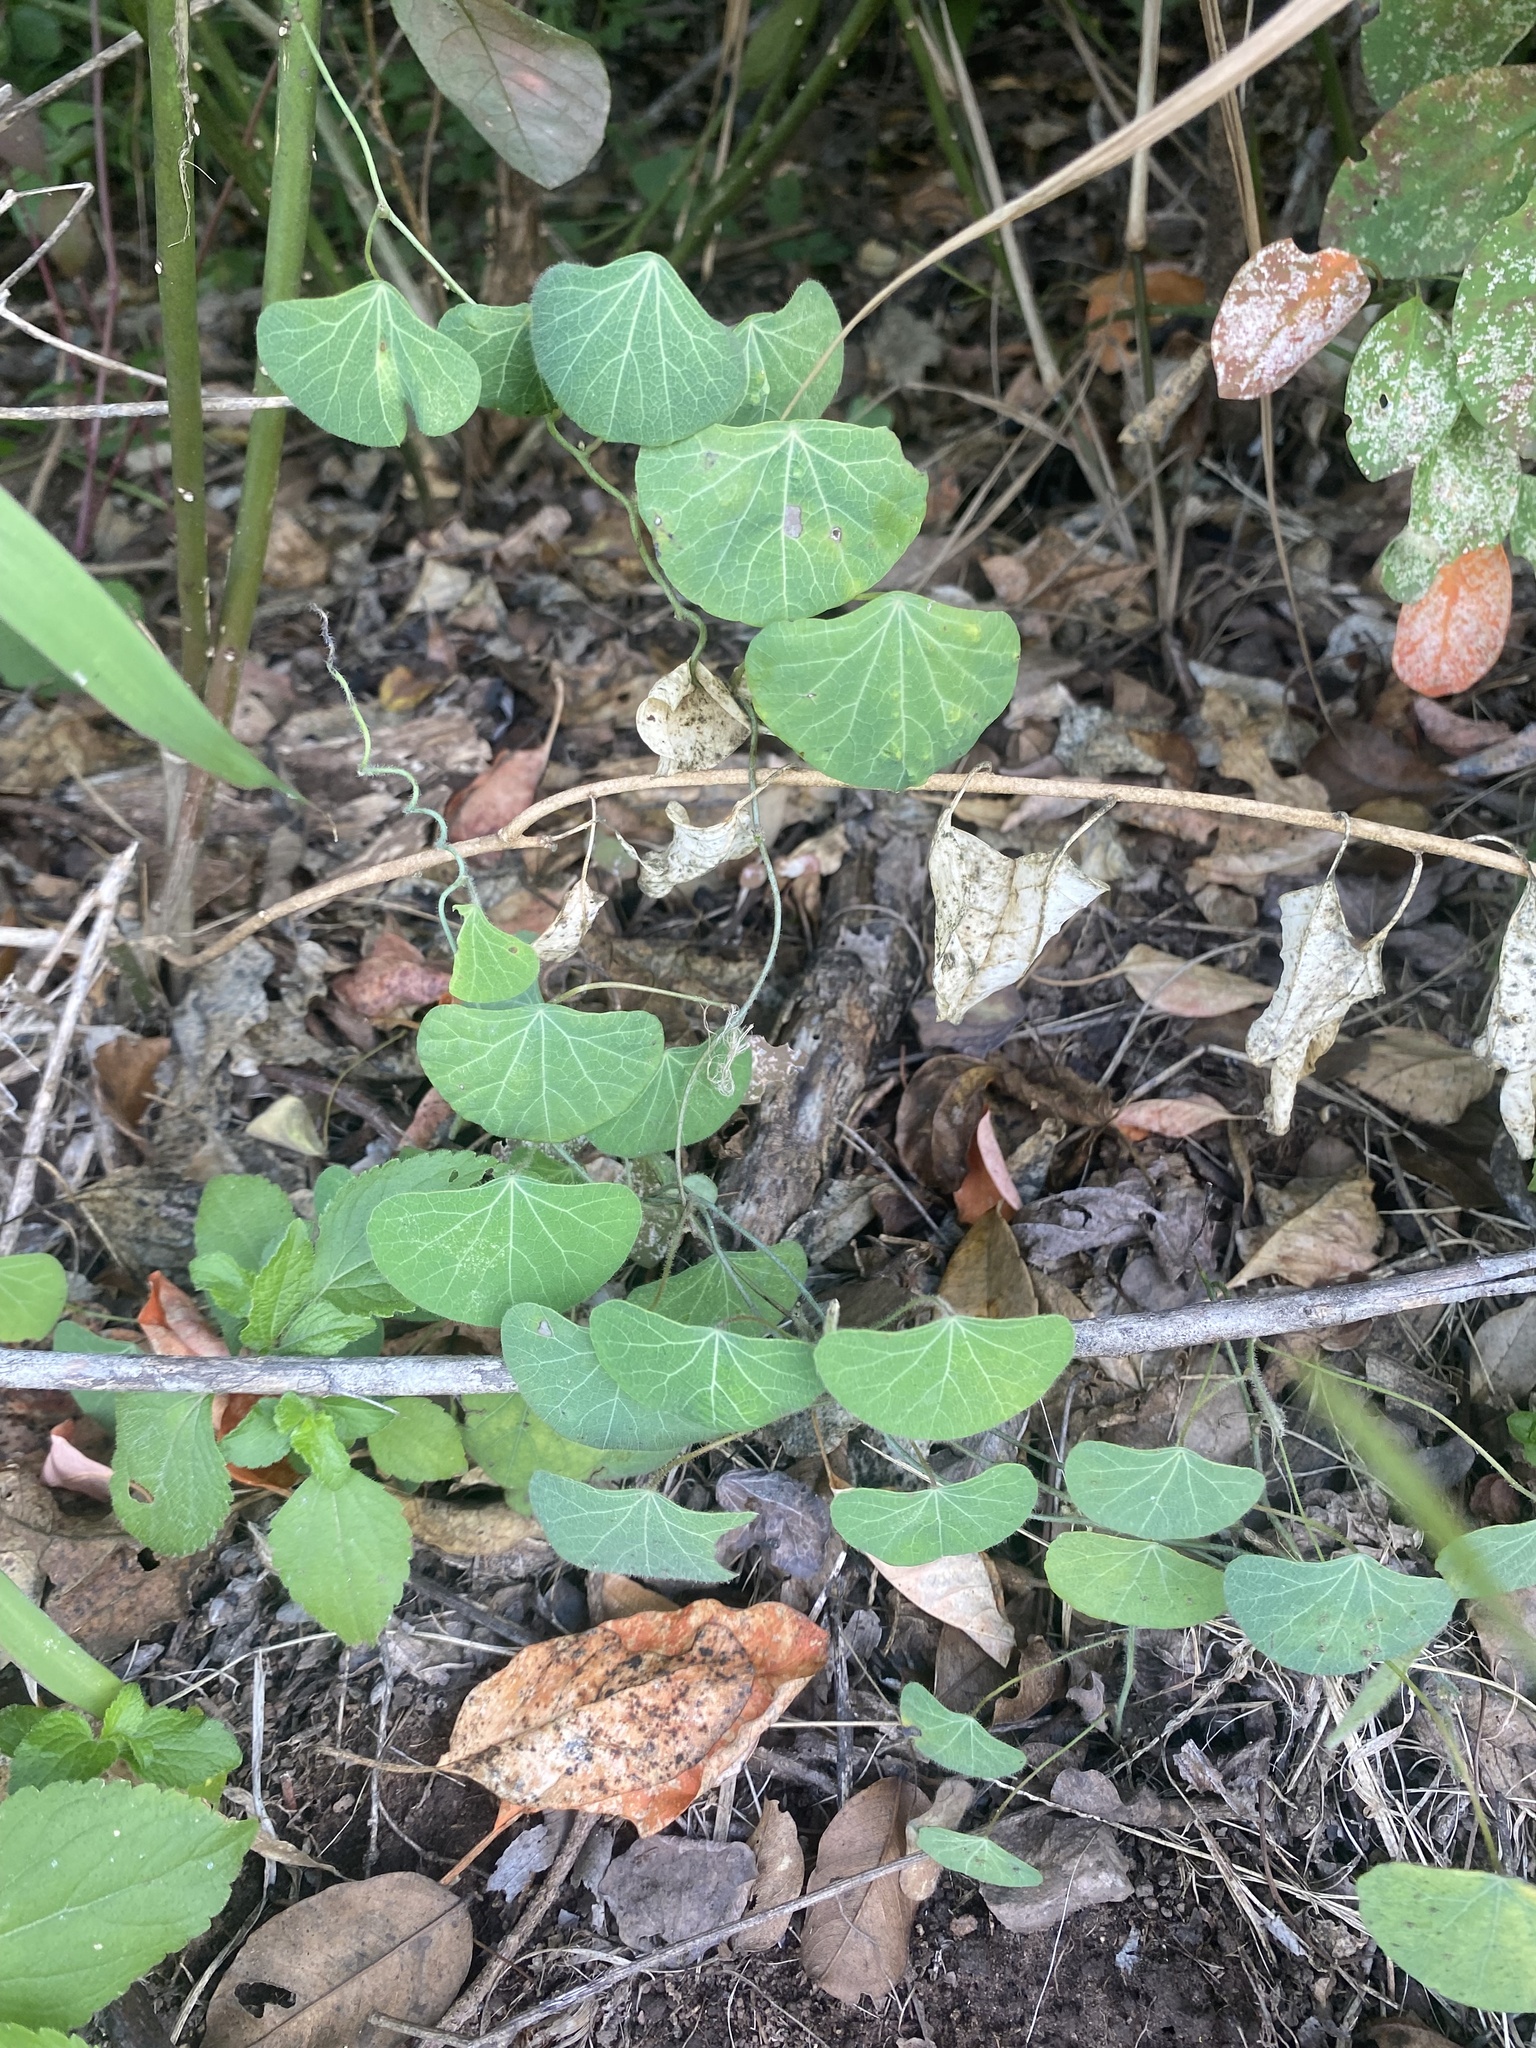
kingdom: Plantae
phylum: Tracheophyta
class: Magnoliopsida
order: Ranunculales
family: Menispermaceae
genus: Cissampelos
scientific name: Cissampelos torulosa
